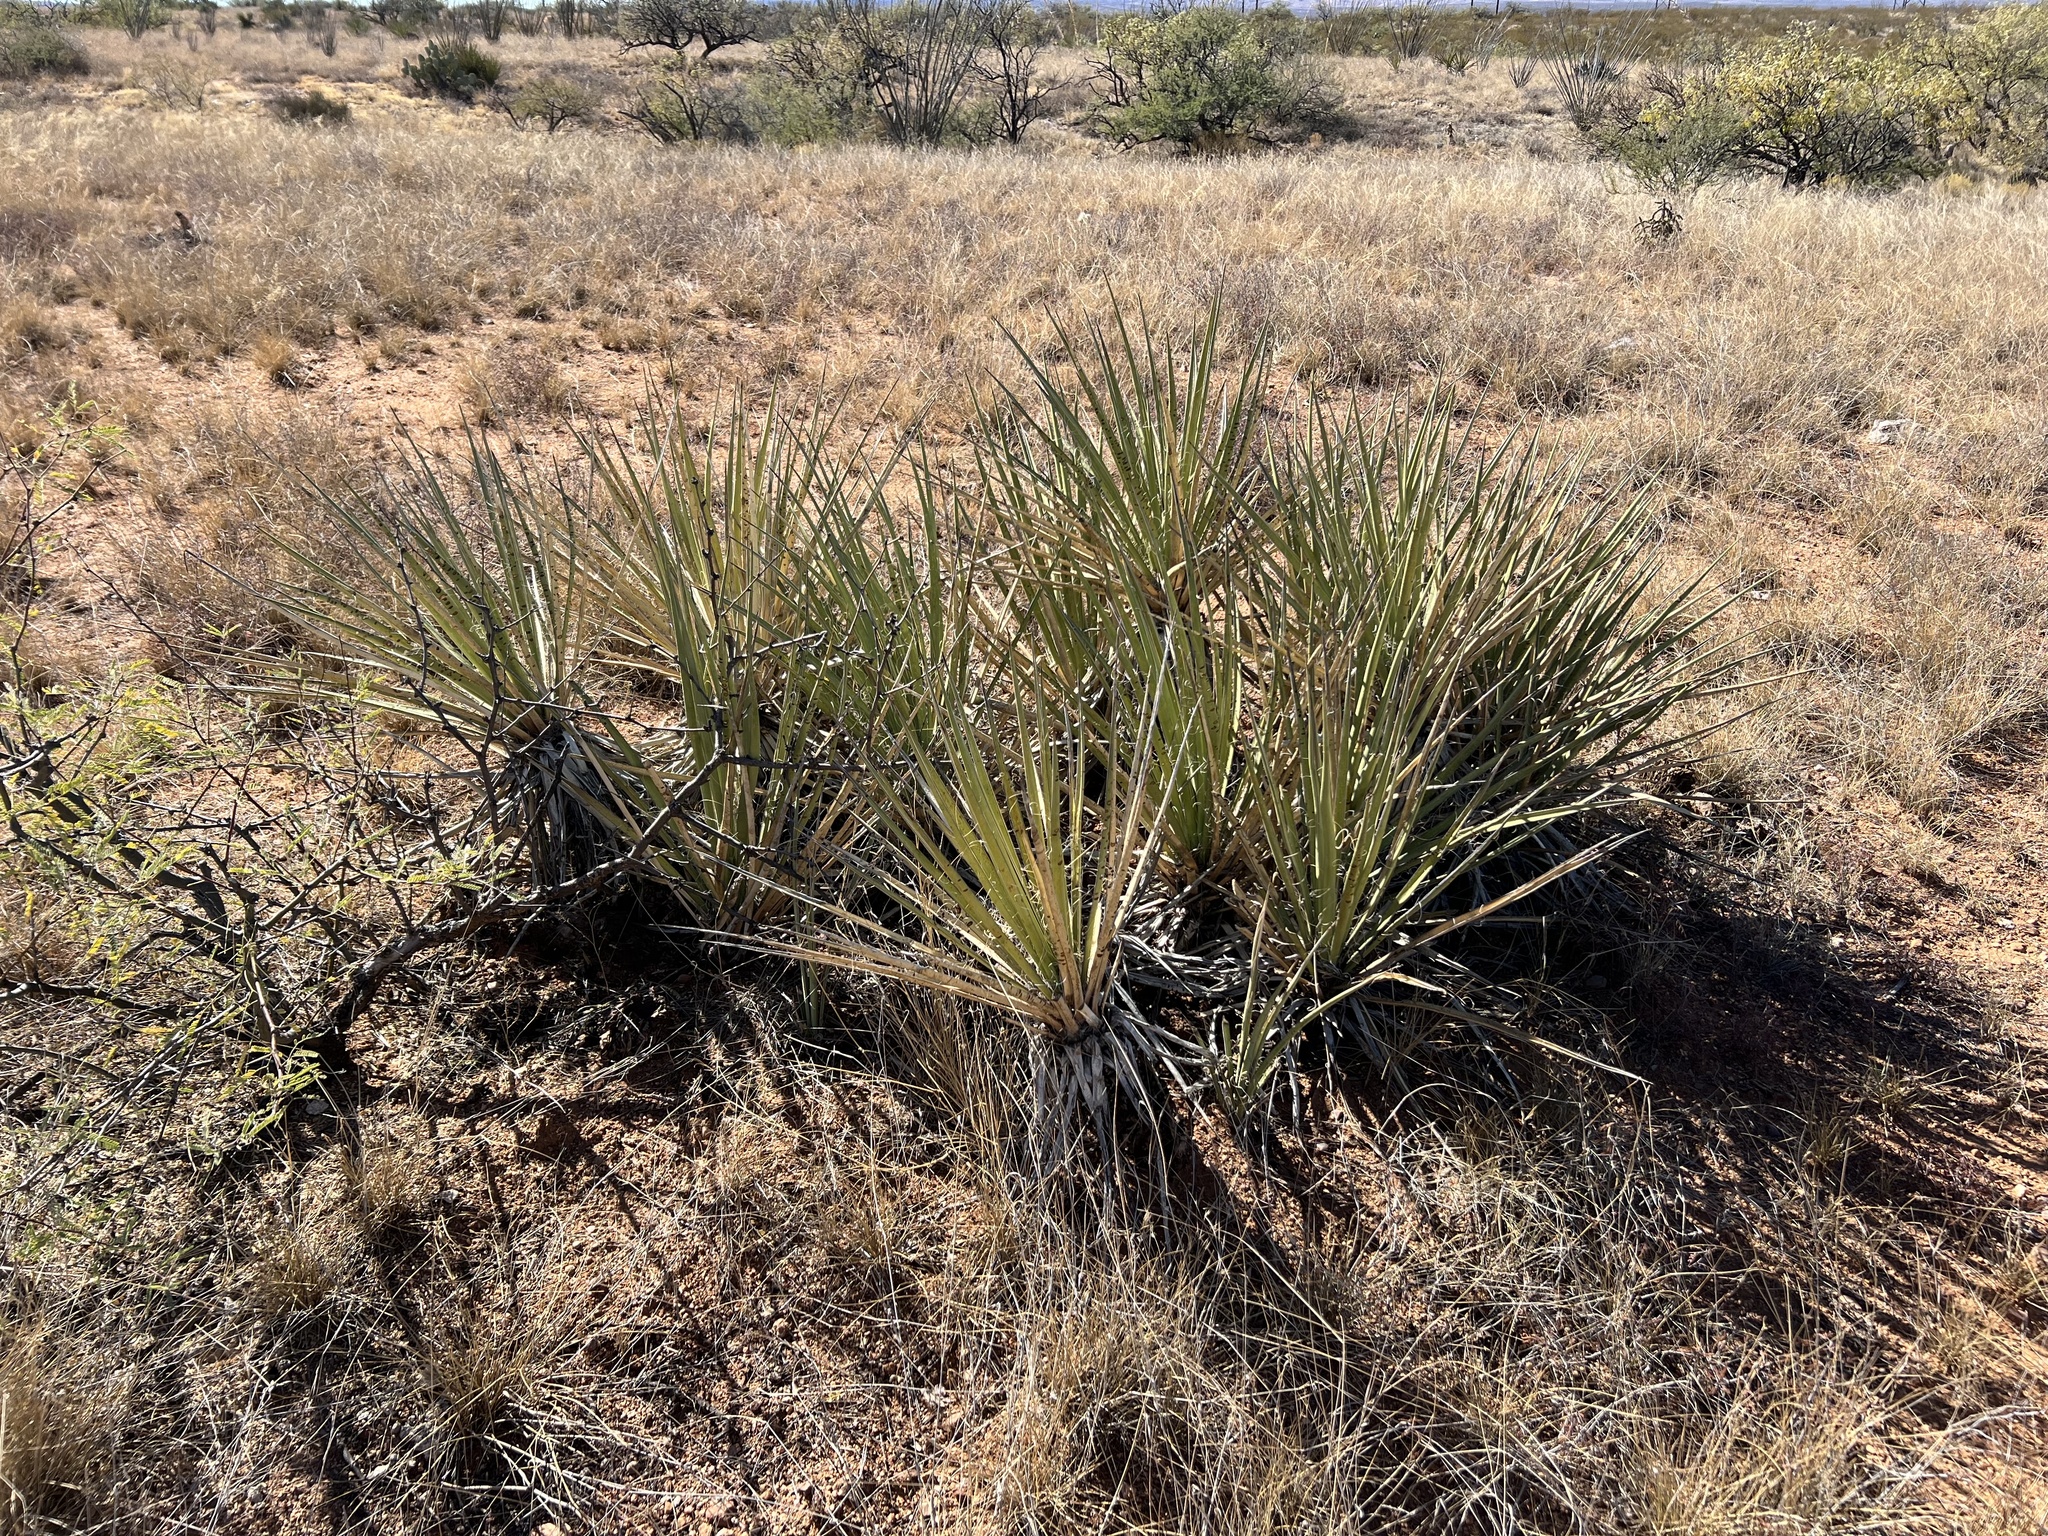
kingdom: Plantae
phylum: Tracheophyta
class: Liliopsida
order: Asparagales
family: Asparagaceae
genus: Yucca
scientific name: Yucca baccata
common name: Banana yucca
